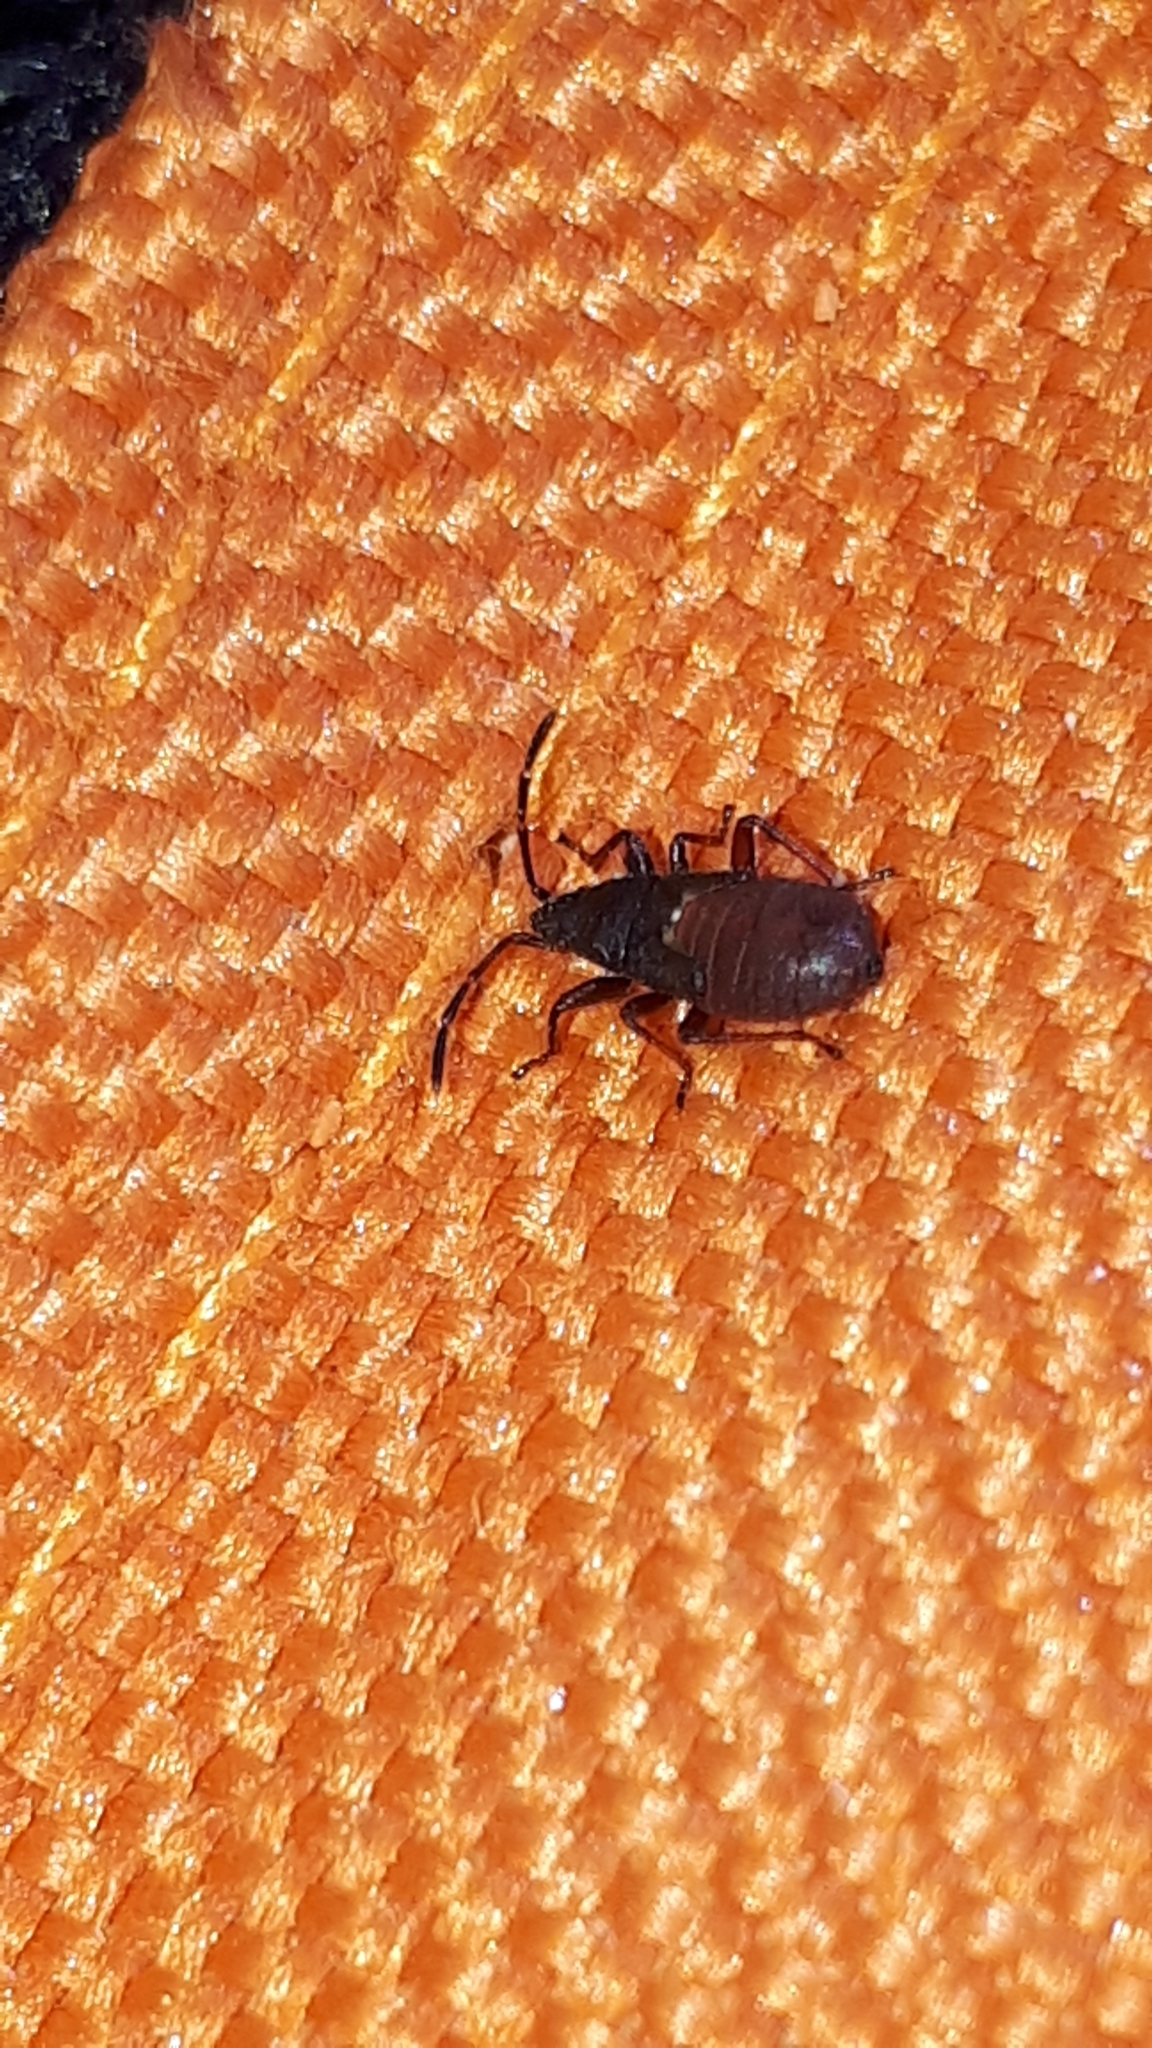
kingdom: Animalia
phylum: Arthropoda
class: Insecta
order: Hemiptera
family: Oxycarenidae
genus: Oxycarenus
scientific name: Oxycarenus lavaterae
